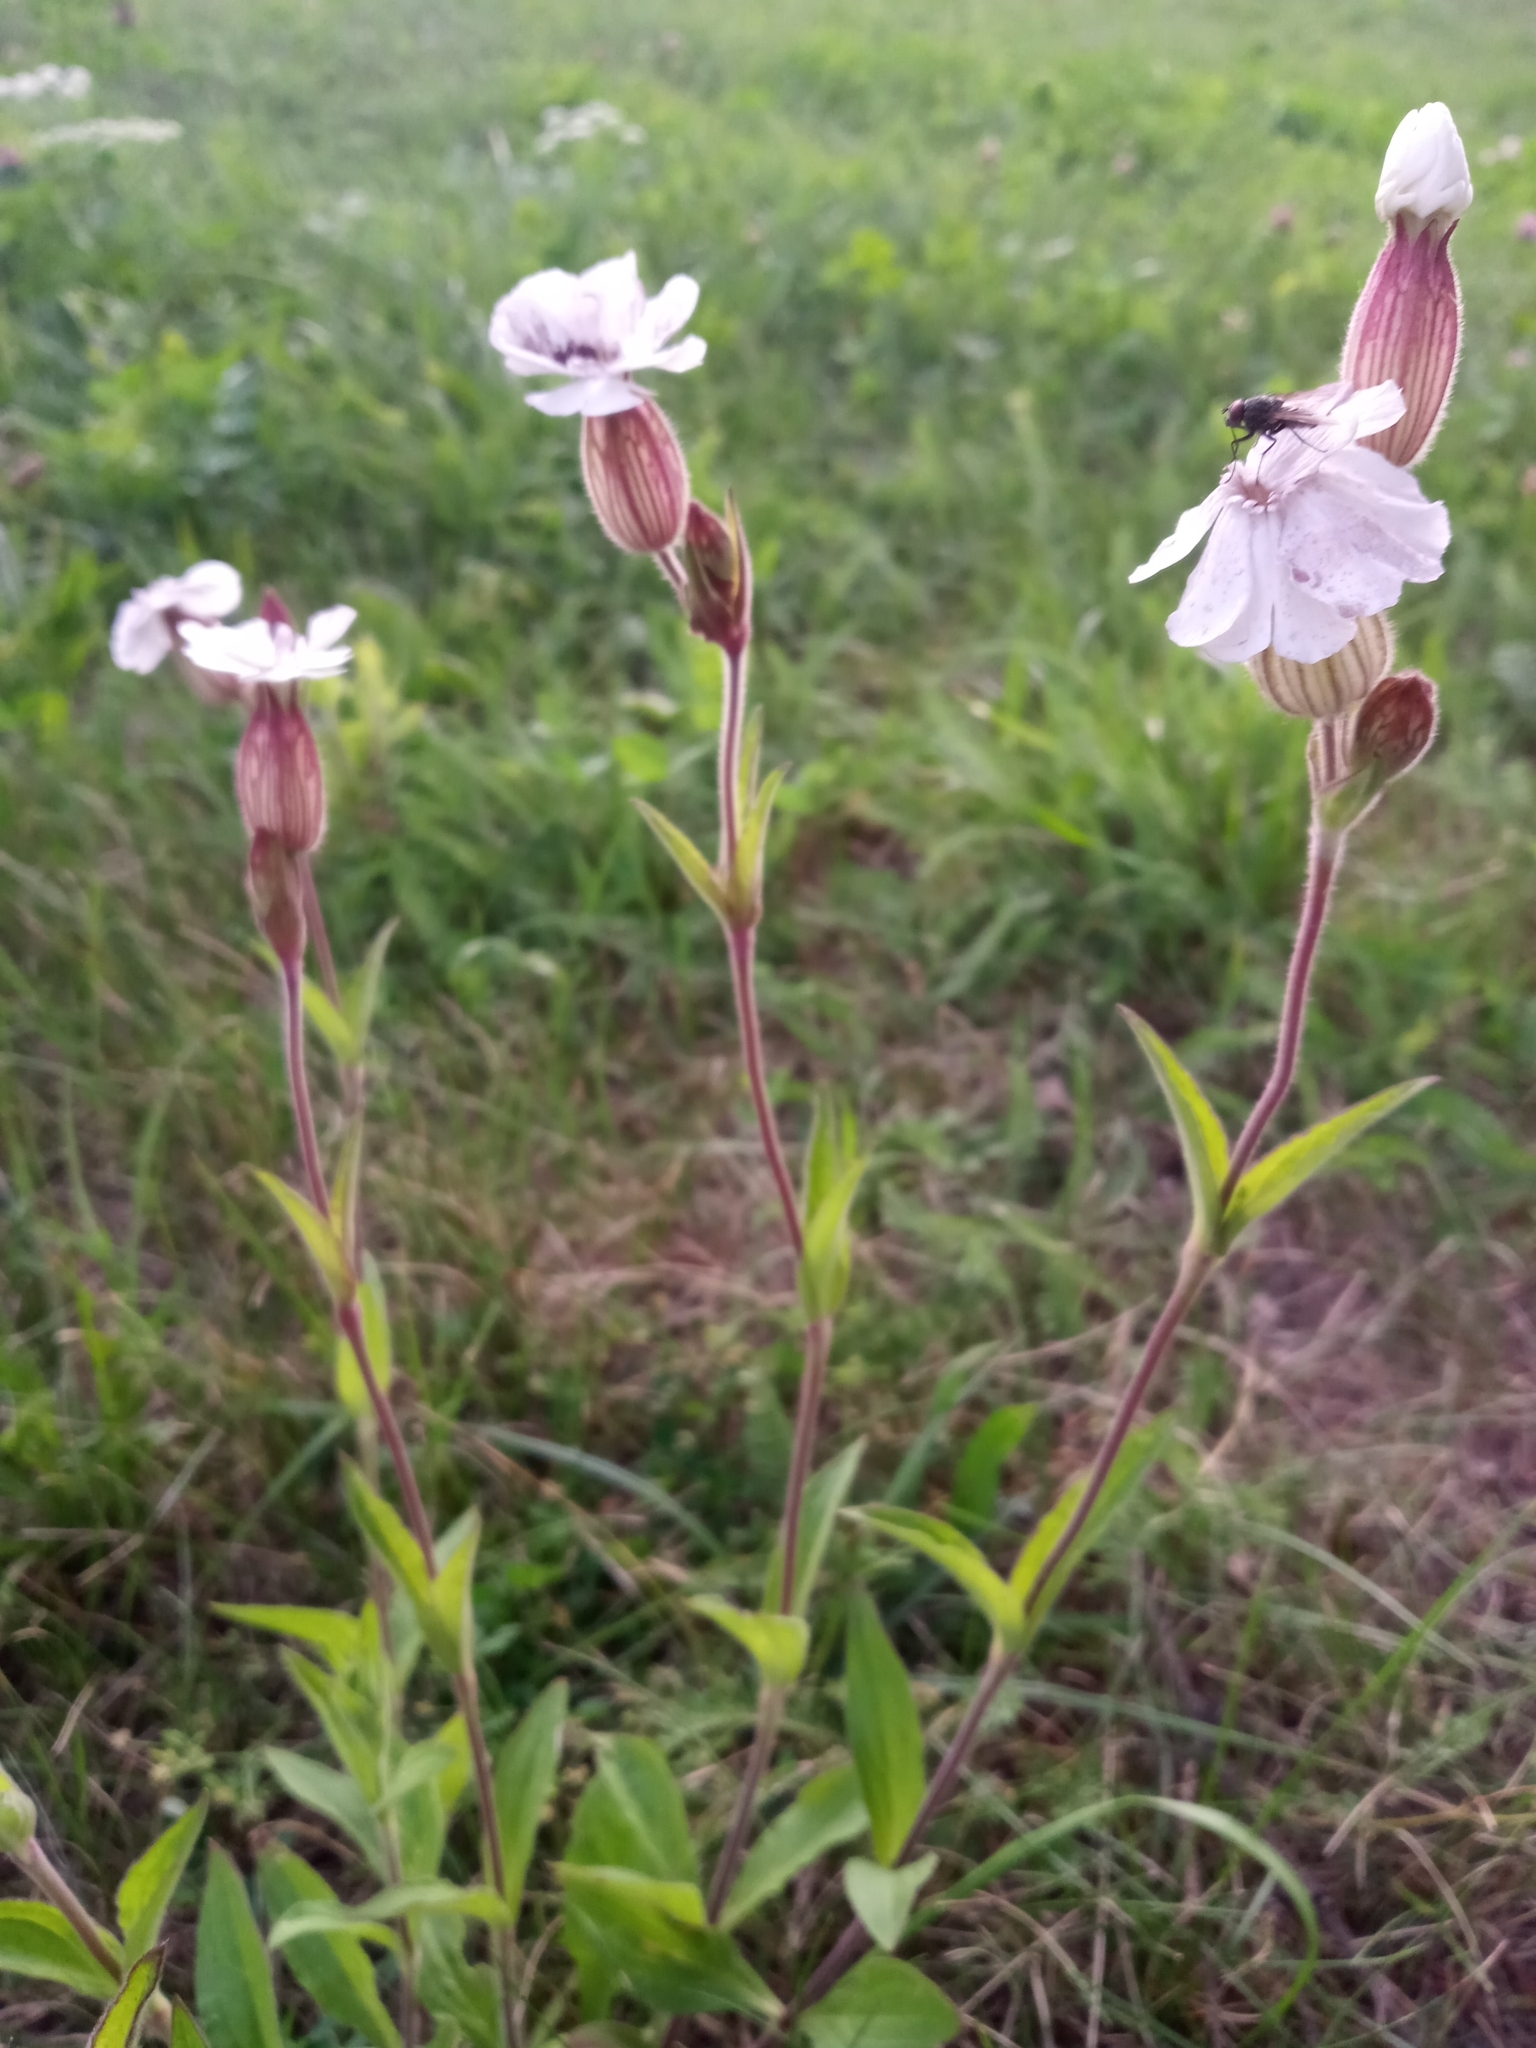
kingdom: Plantae
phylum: Tracheophyta
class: Magnoliopsida
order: Caryophyllales
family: Caryophyllaceae
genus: Silene
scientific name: Silene latifolia
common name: White campion
